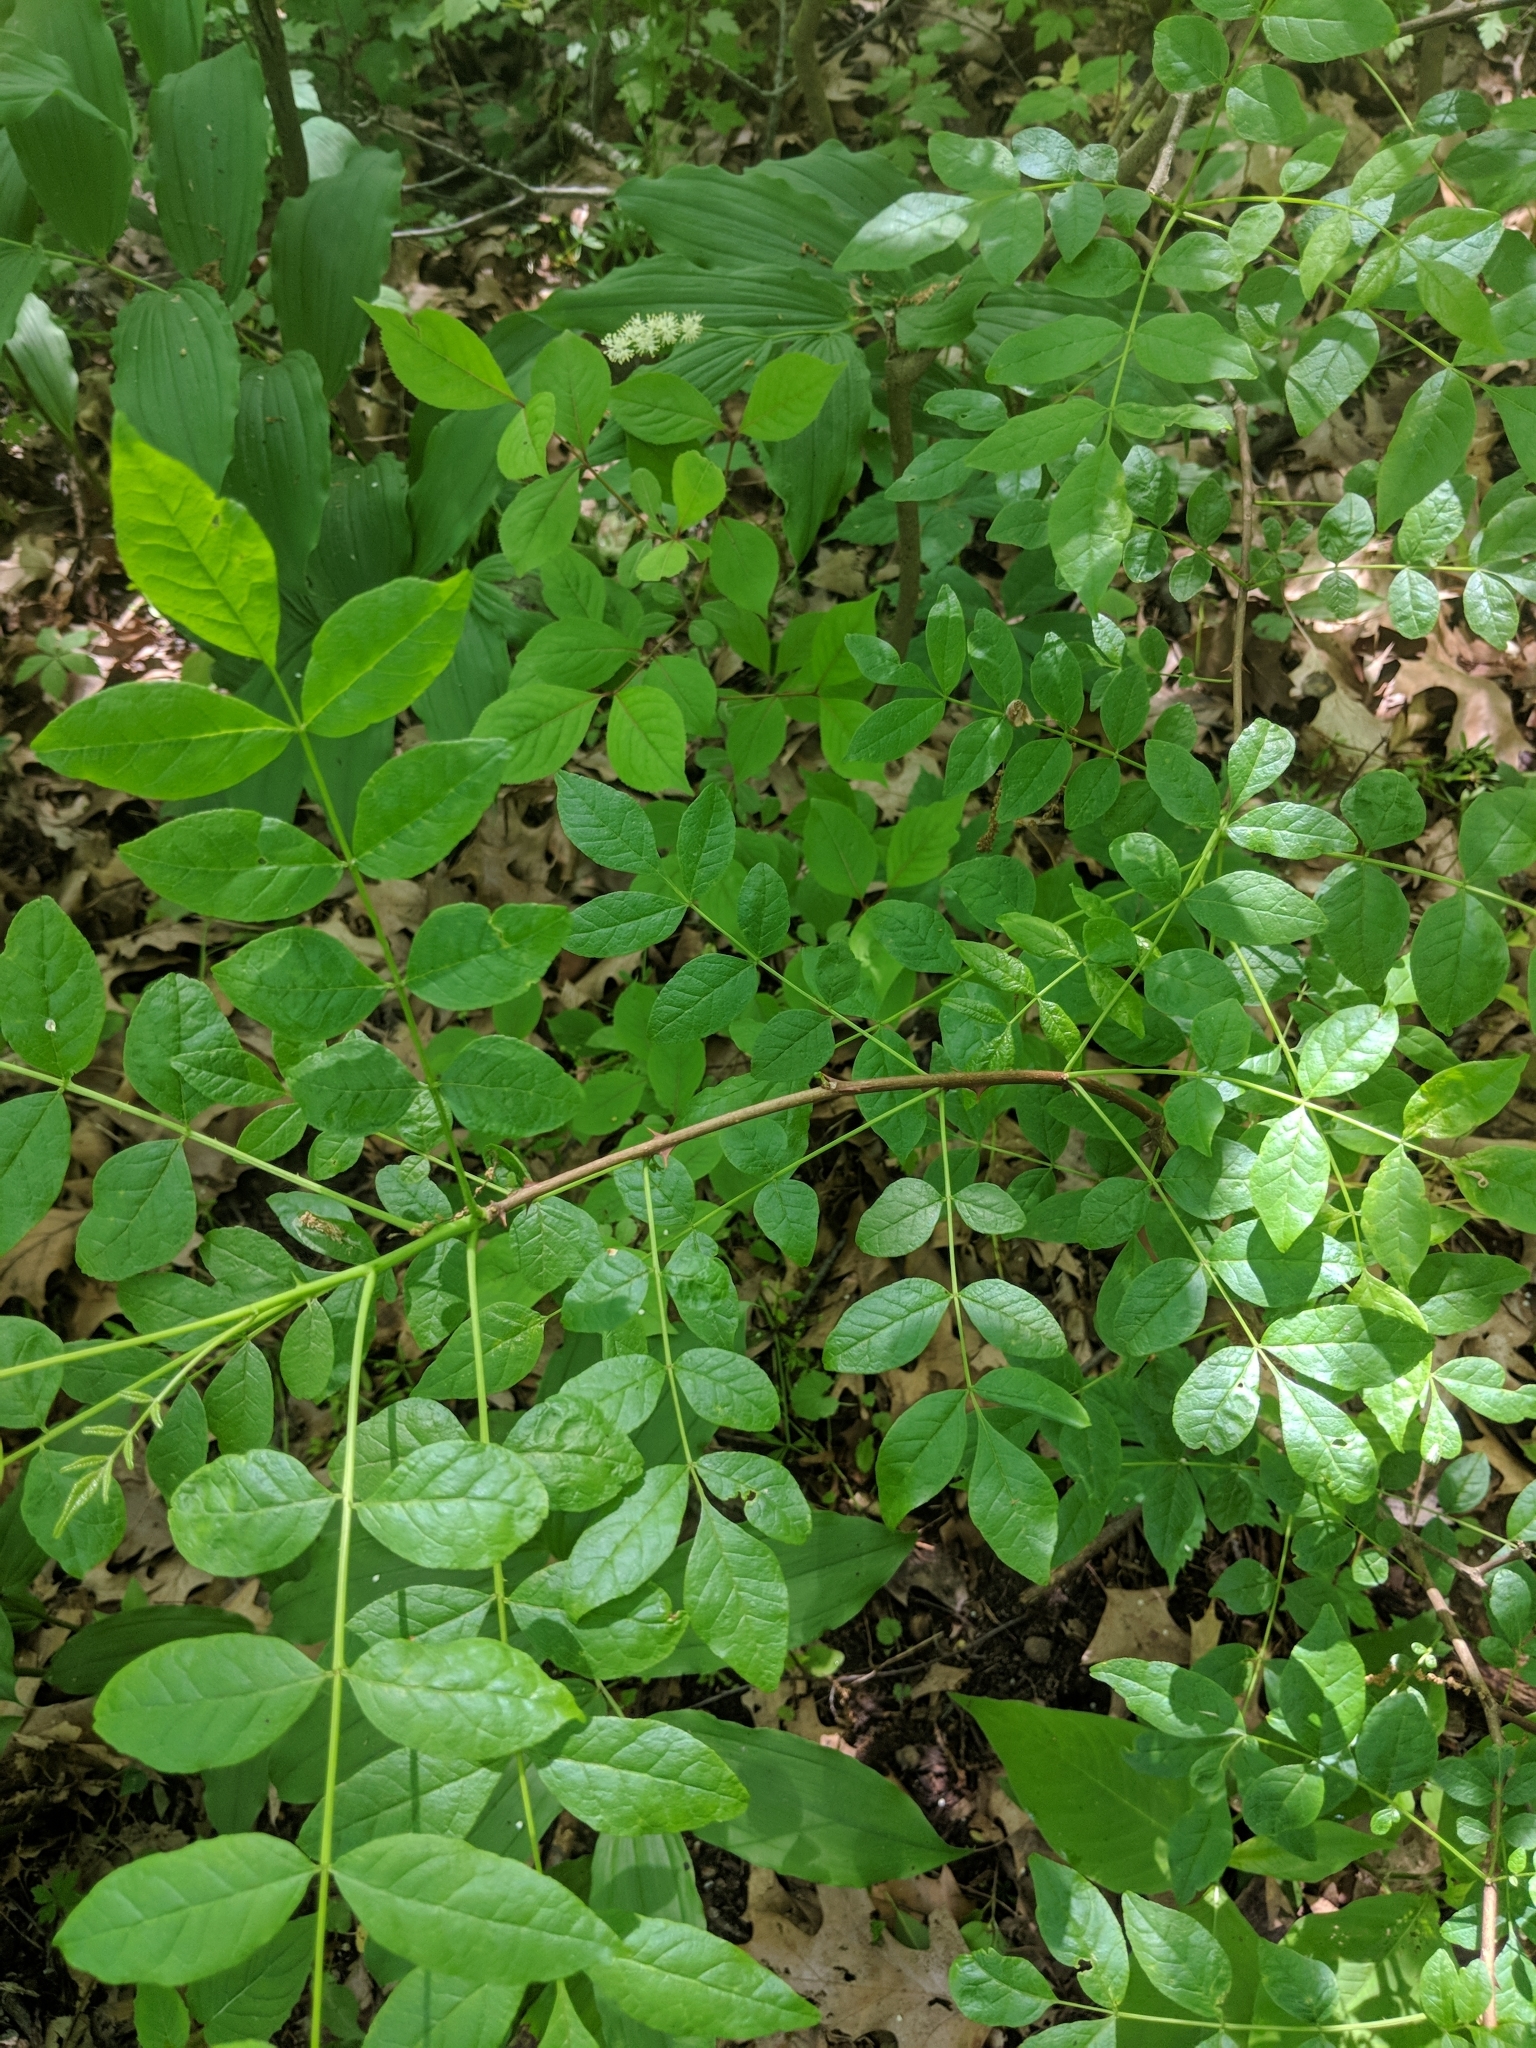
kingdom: Plantae
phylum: Tracheophyta
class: Magnoliopsida
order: Sapindales
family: Rutaceae
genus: Zanthoxylum
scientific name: Zanthoxylum americanum
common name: Northern prickly-ash
